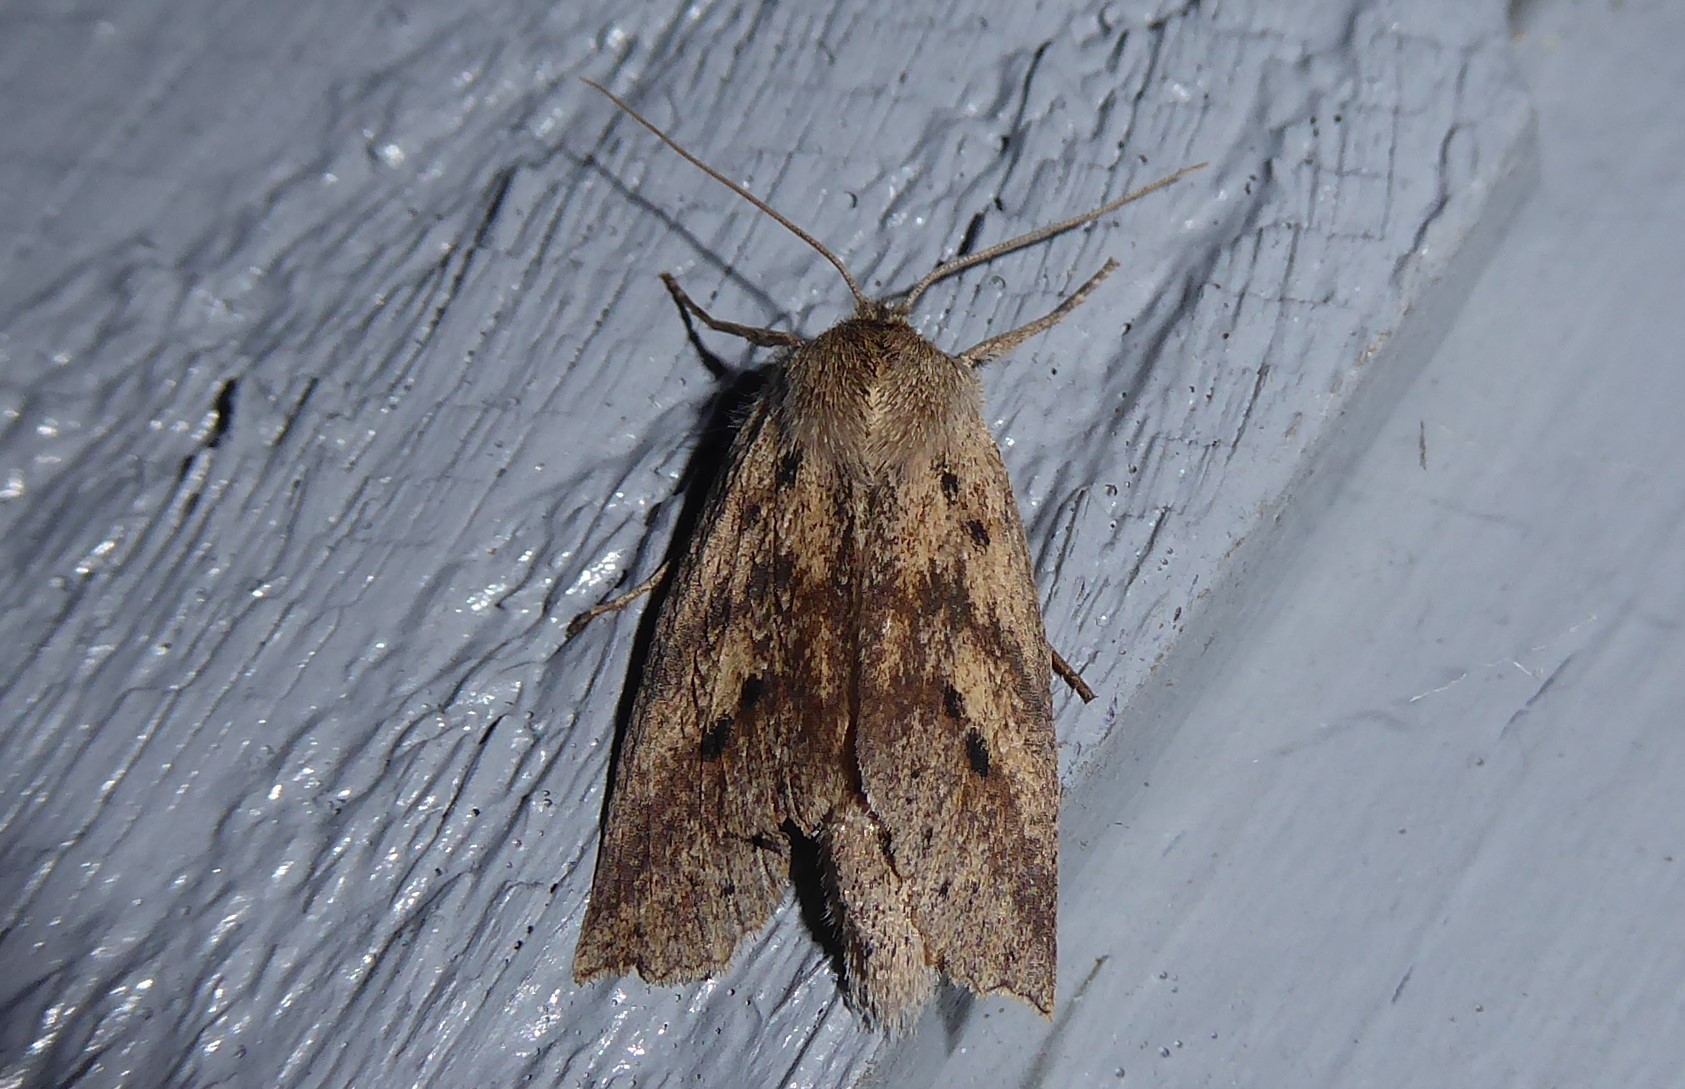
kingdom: Animalia
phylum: Arthropoda
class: Insecta
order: Lepidoptera
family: Geometridae
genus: Declana
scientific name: Declana leptomera
